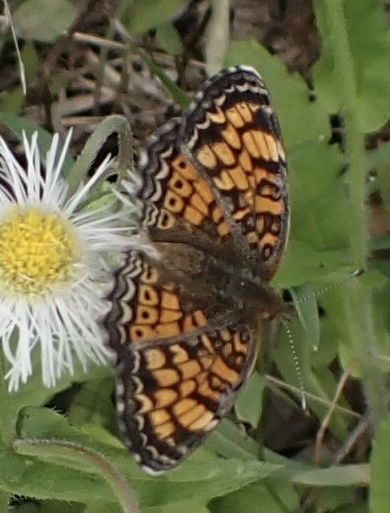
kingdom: Animalia
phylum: Arthropoda
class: Insecta
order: Lepidoptera
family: Nymphalidae
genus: Phyciodes
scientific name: Phyciodes tharos
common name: Pearl crescent
